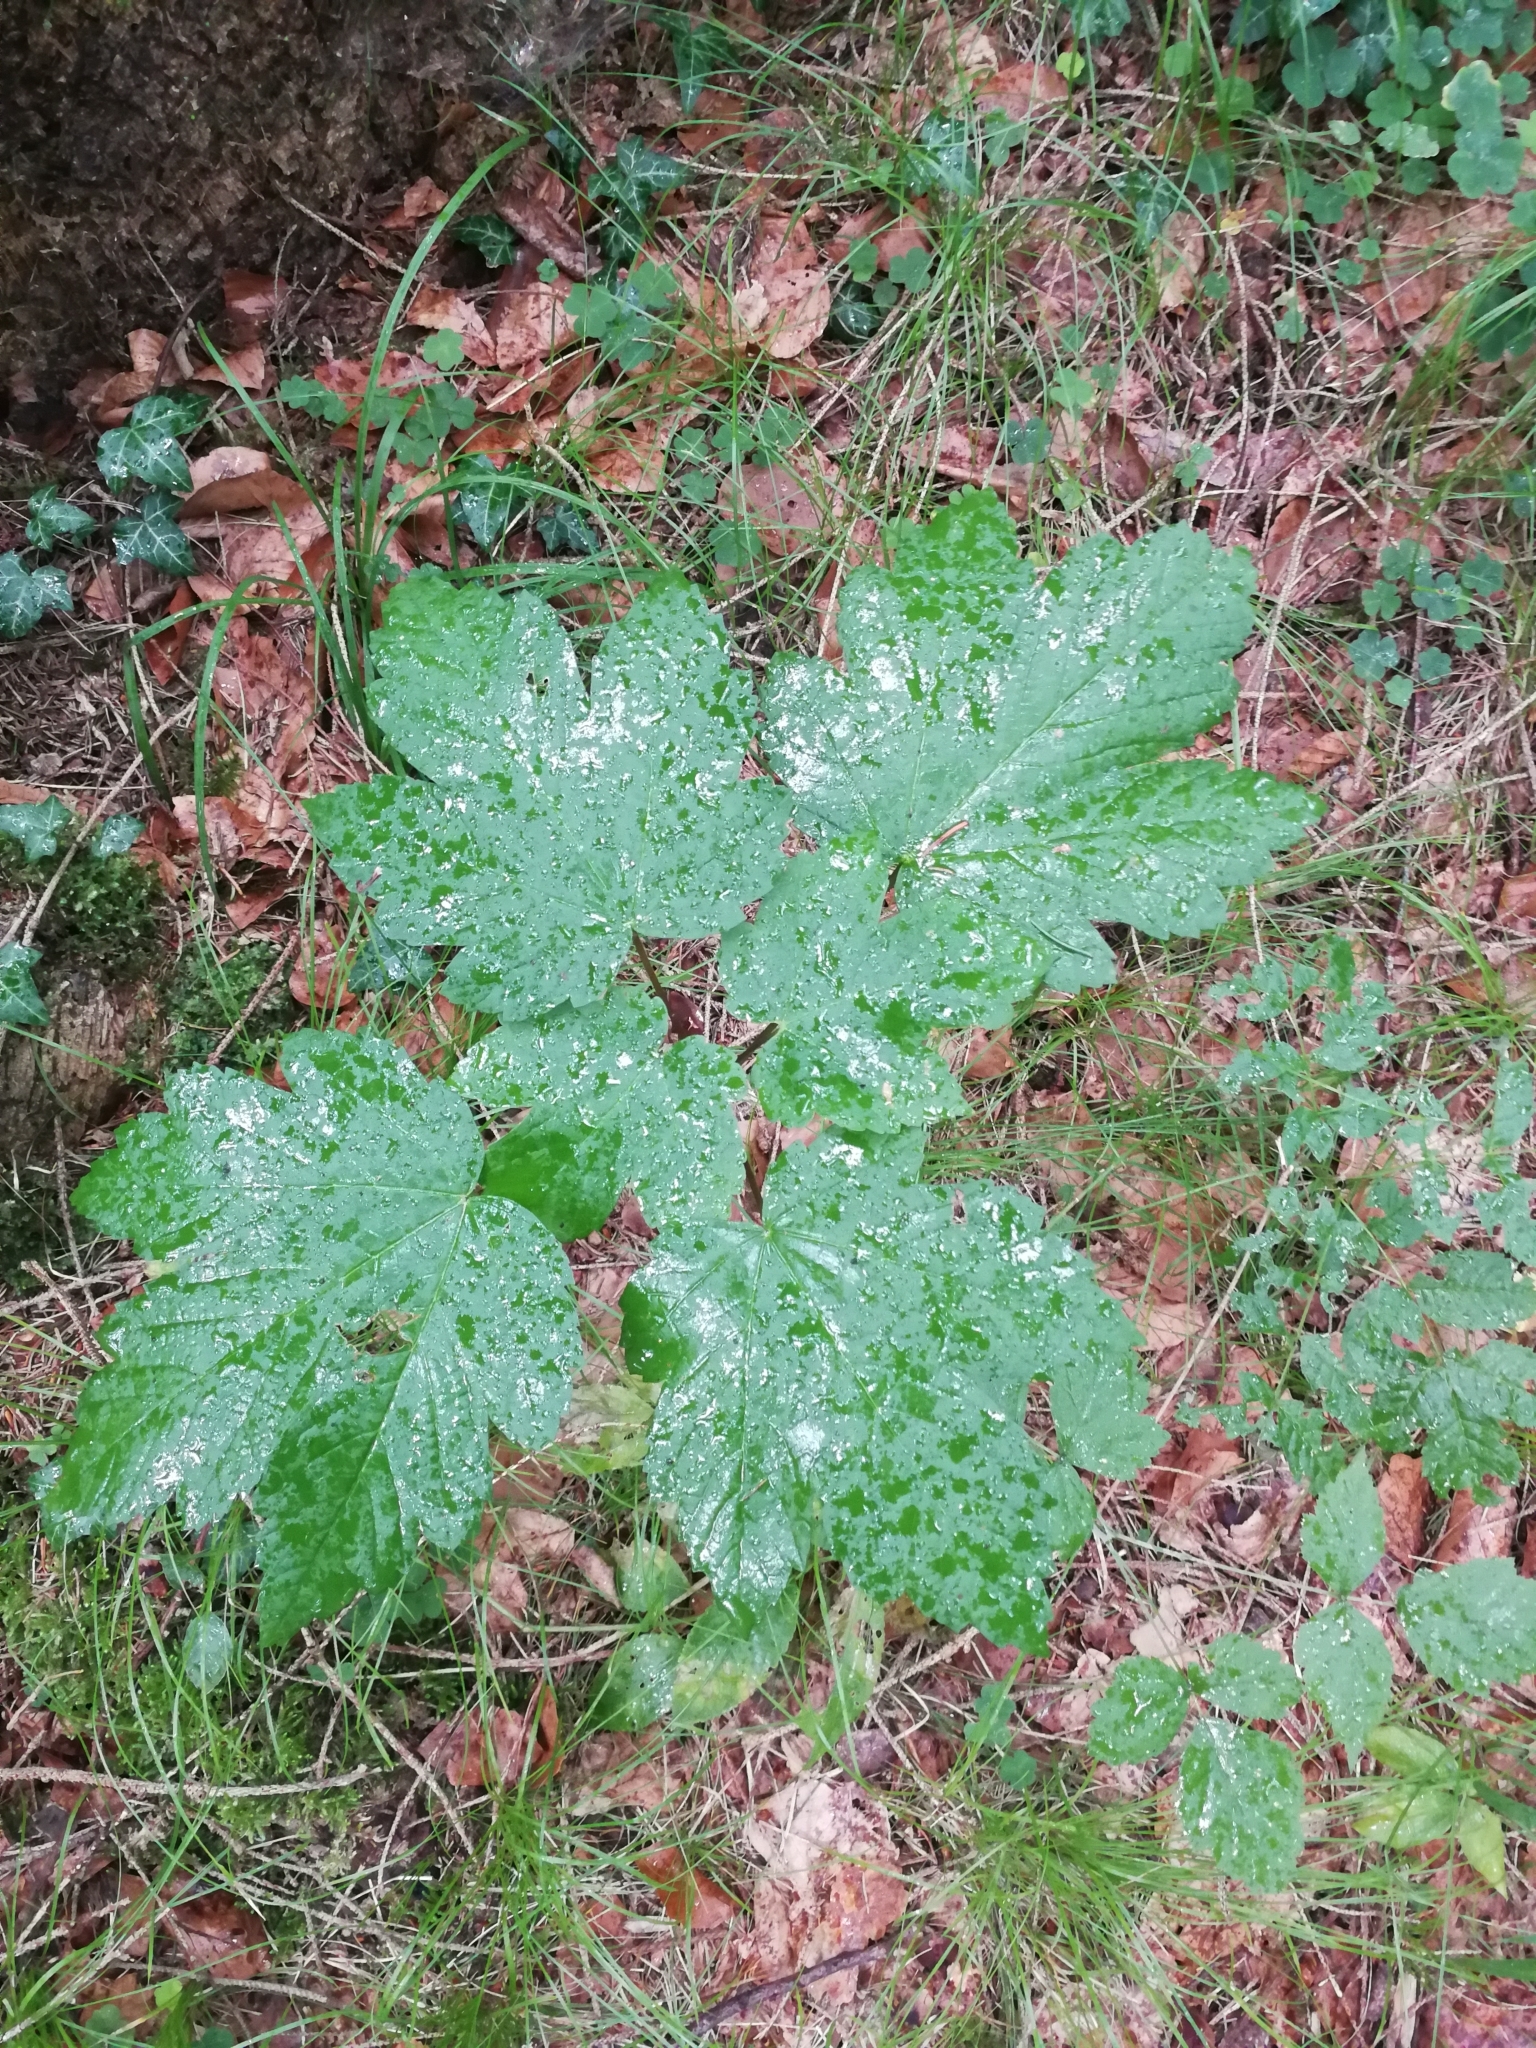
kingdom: Plantae
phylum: Tracheophyta
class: Magnoliopsida
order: Sapindales
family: Sapindaceae
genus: Acer
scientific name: Acer pseudoplatanus
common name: Sycamore
